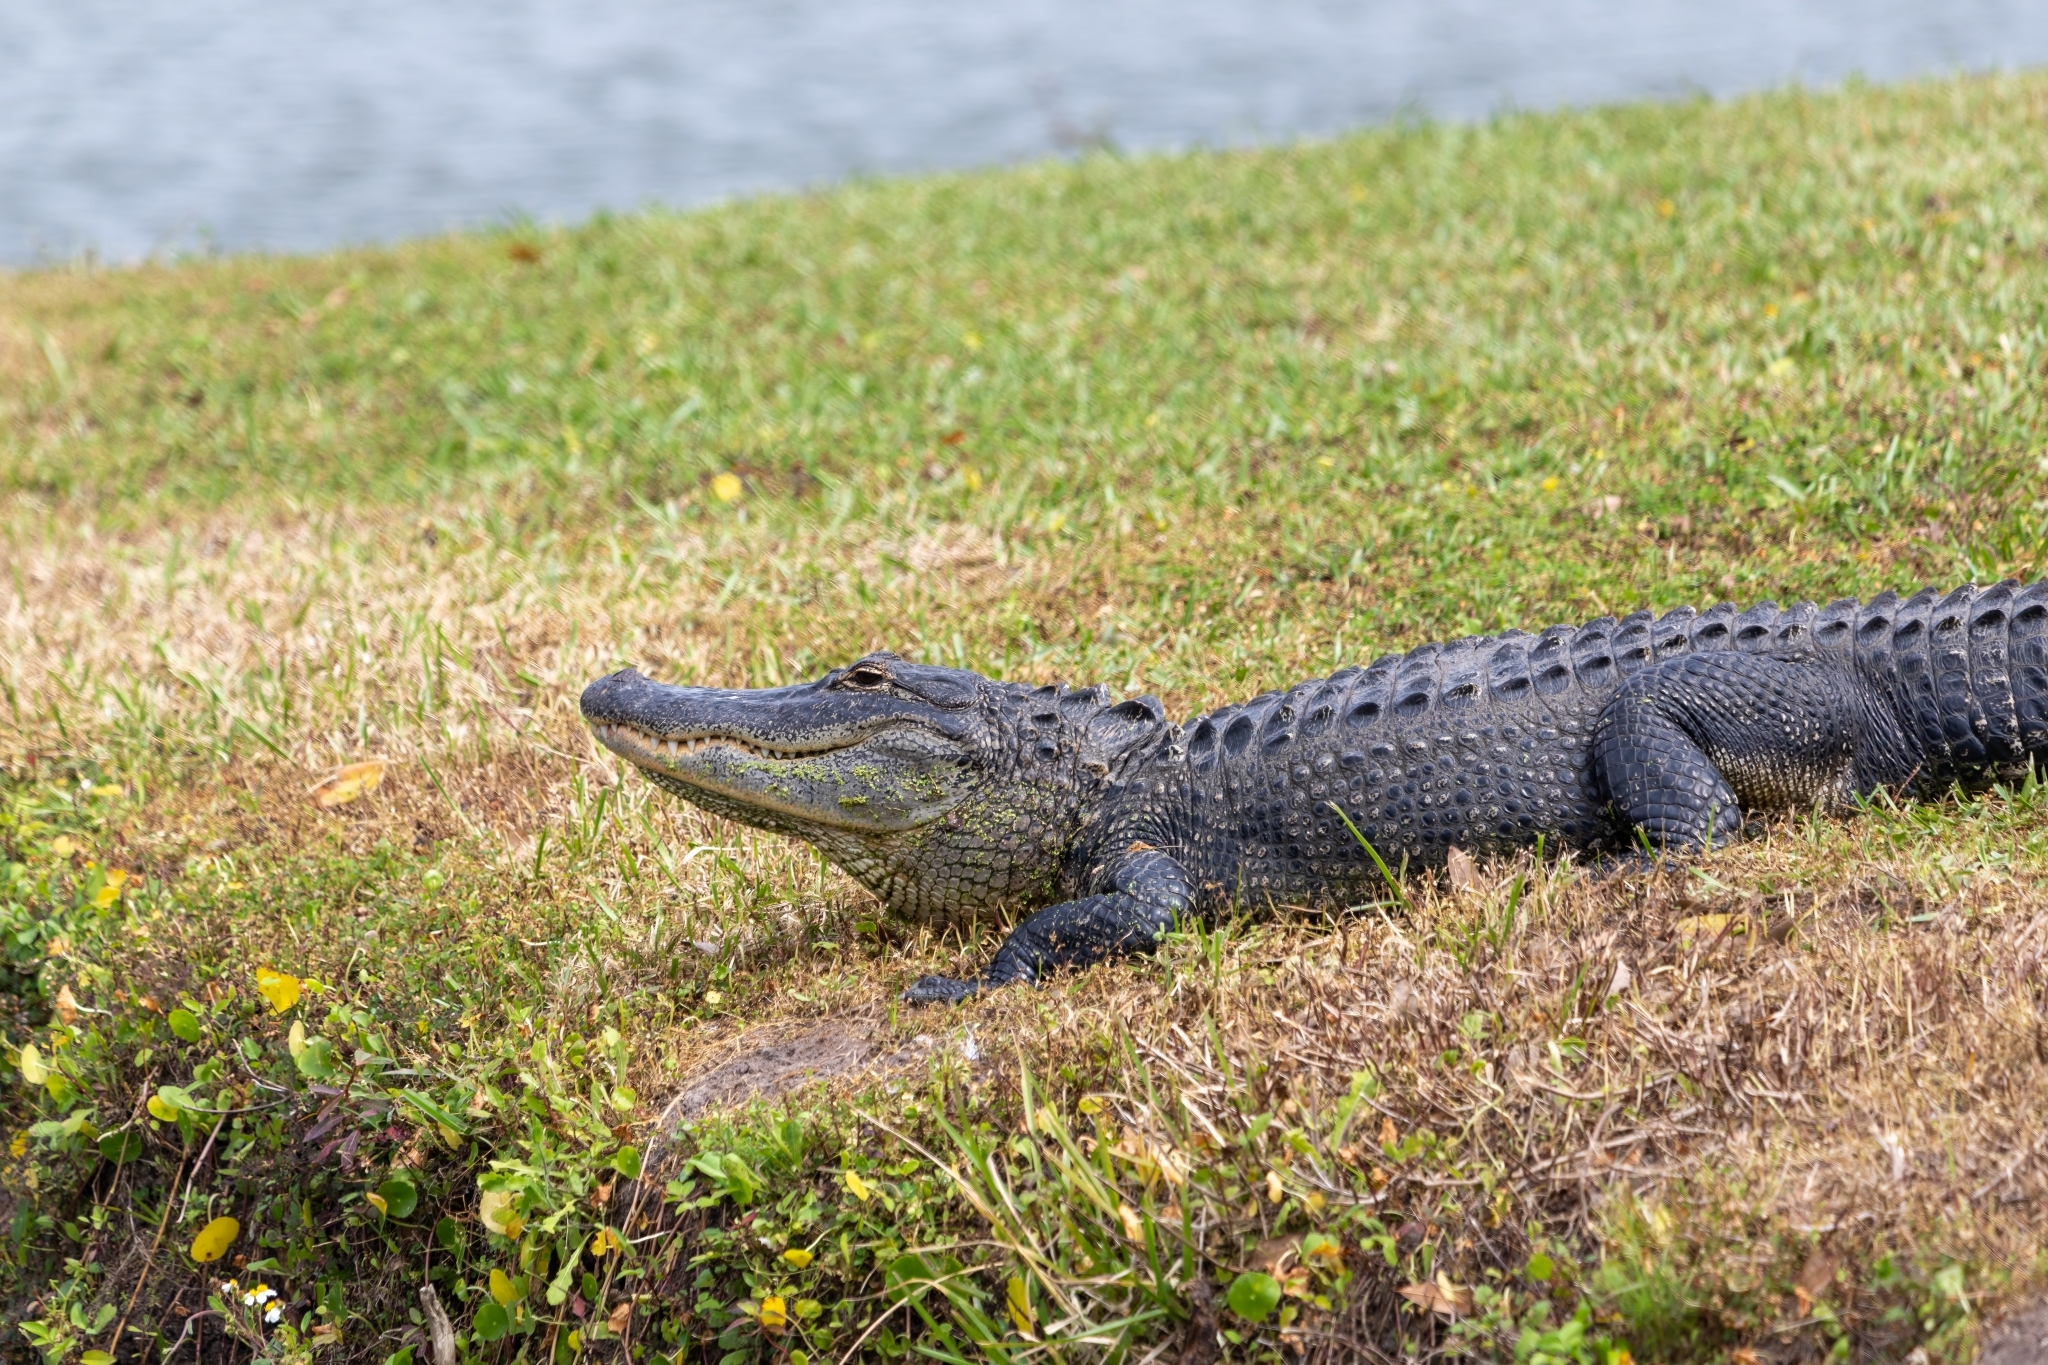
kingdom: Animalia
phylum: Chordata
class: Crocodylia
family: Alligatoridae
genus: Alligator
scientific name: Alligator mississippiensis
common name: American alligator
